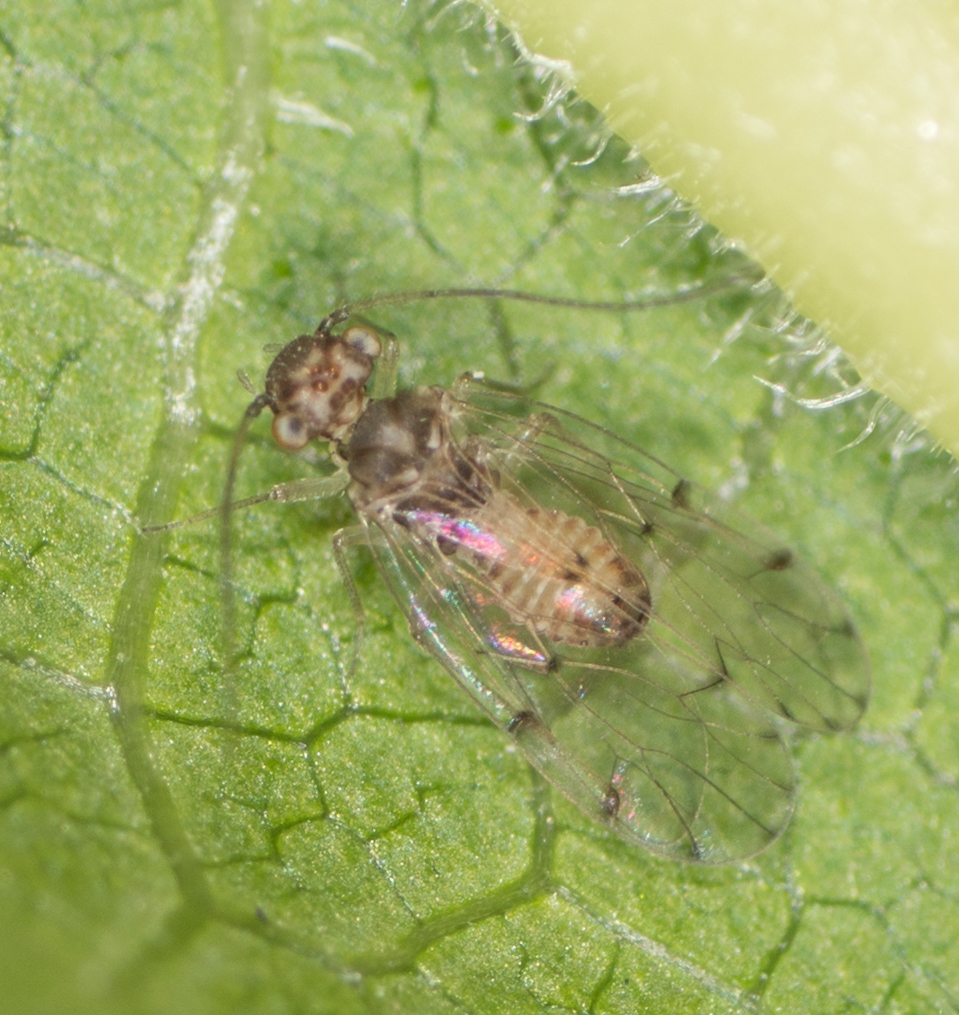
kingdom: Animalia
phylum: Arthropoda
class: Insecta
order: Psocodea
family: Ectopsocidae
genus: Ectopsocus
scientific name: Ectopsocus californicus
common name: Bark lice
